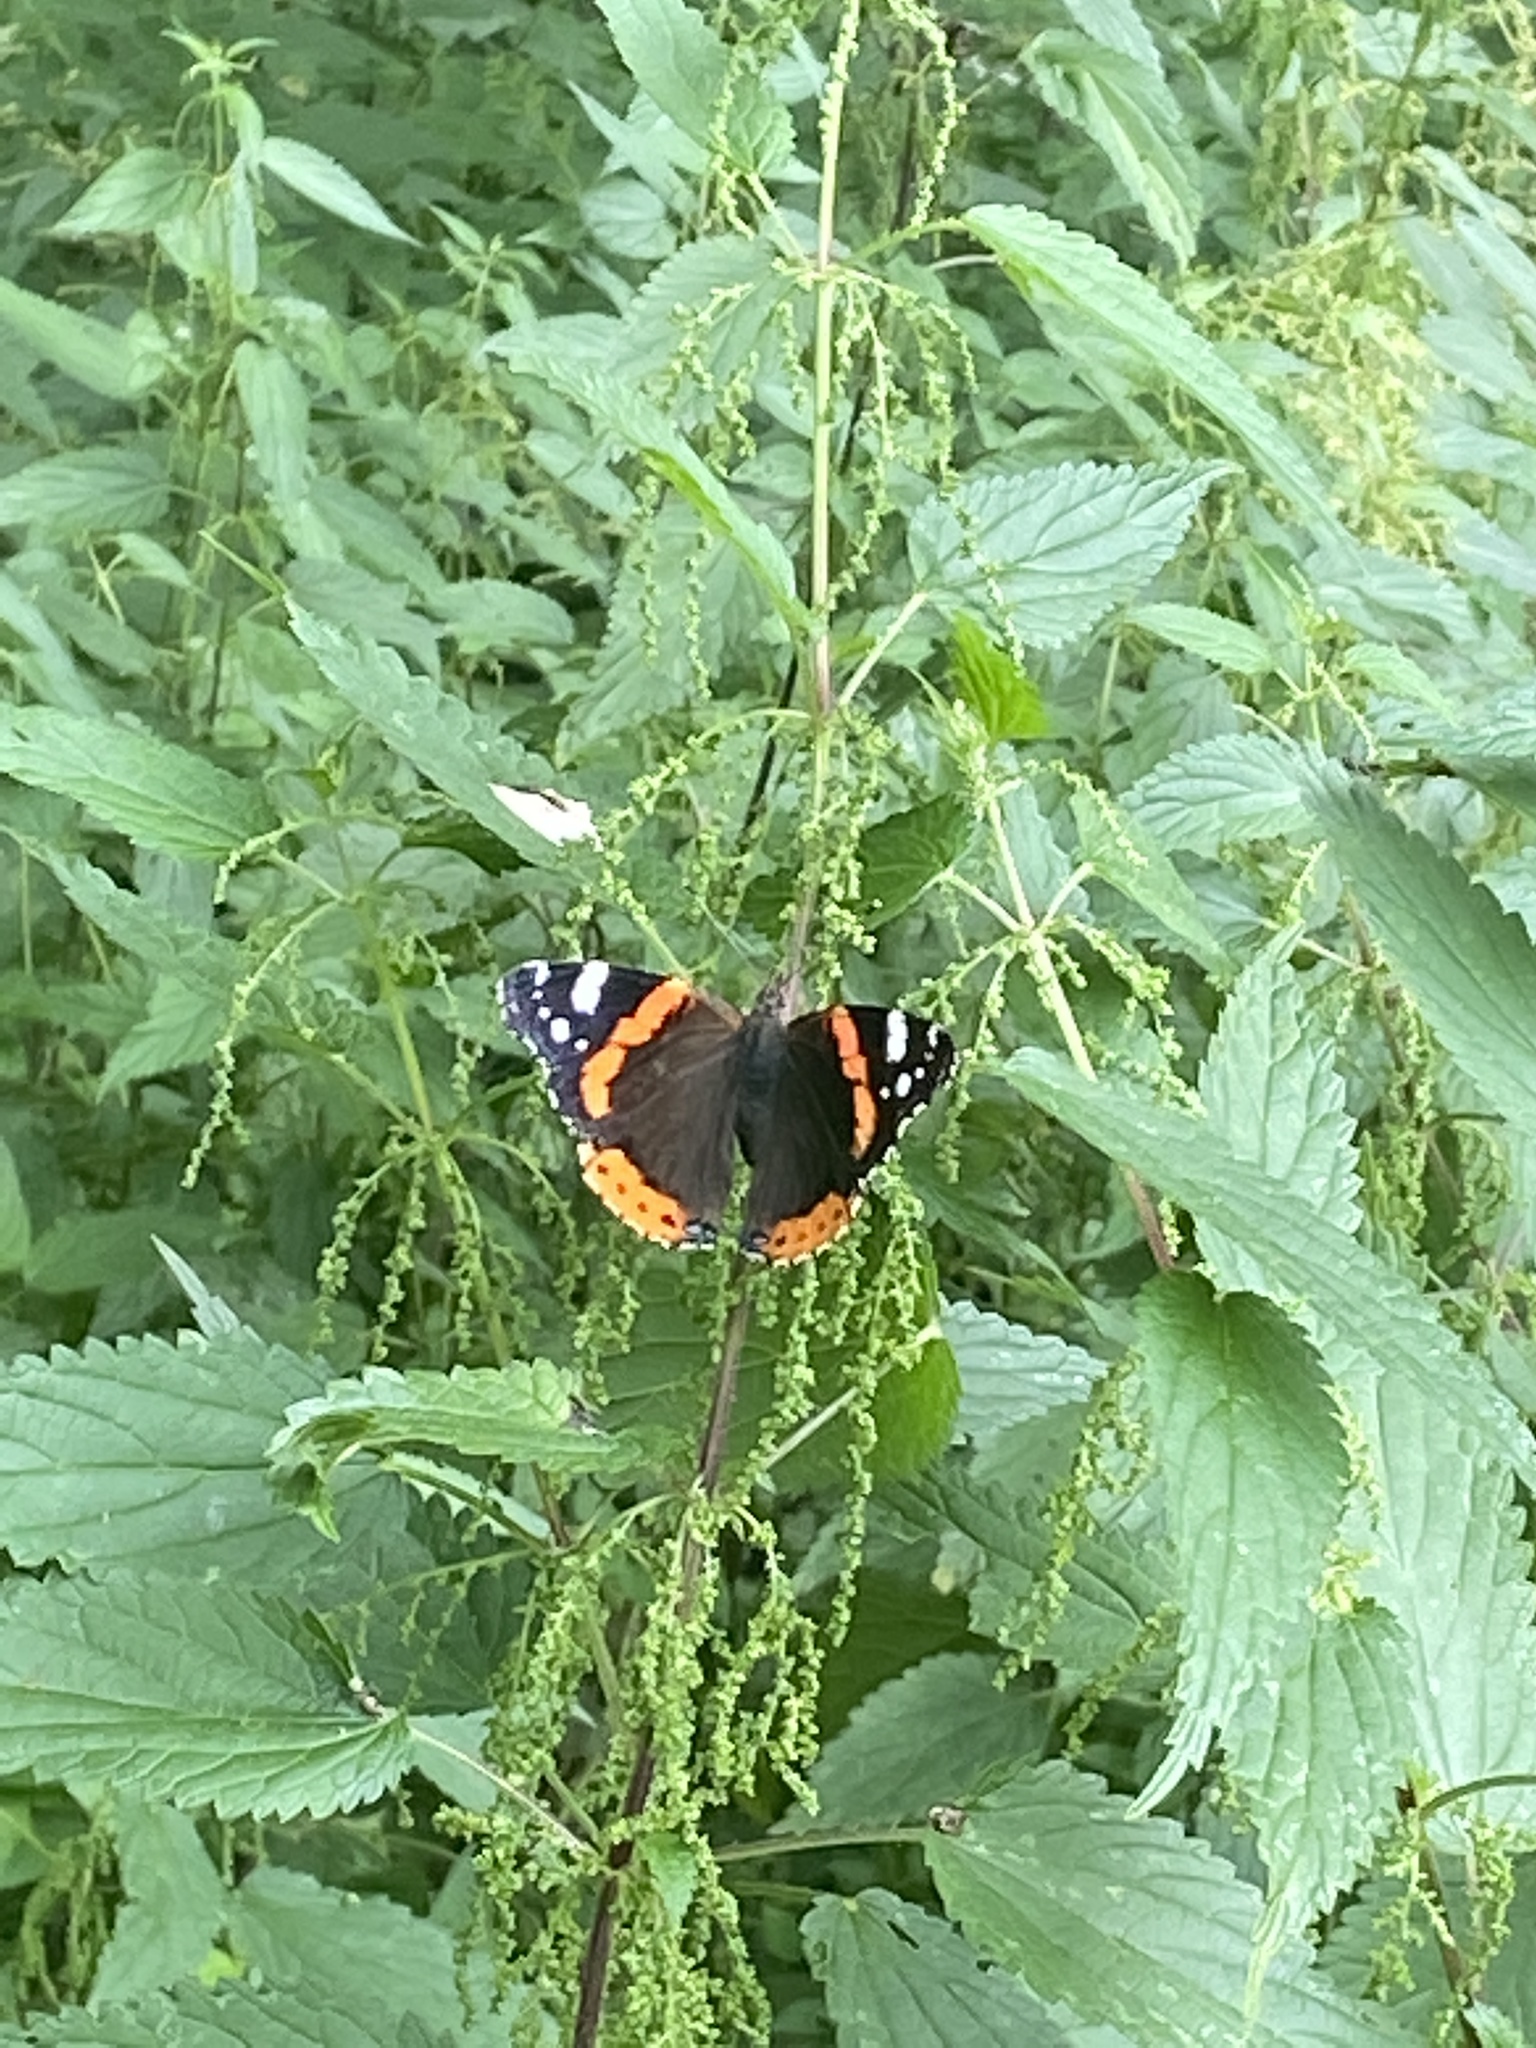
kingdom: Animalia
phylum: Arthropoda
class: Insecta
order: Lepidoptera
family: Nymphalidae
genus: Vanessa
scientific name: Vanessa atalanta
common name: Red admiral
